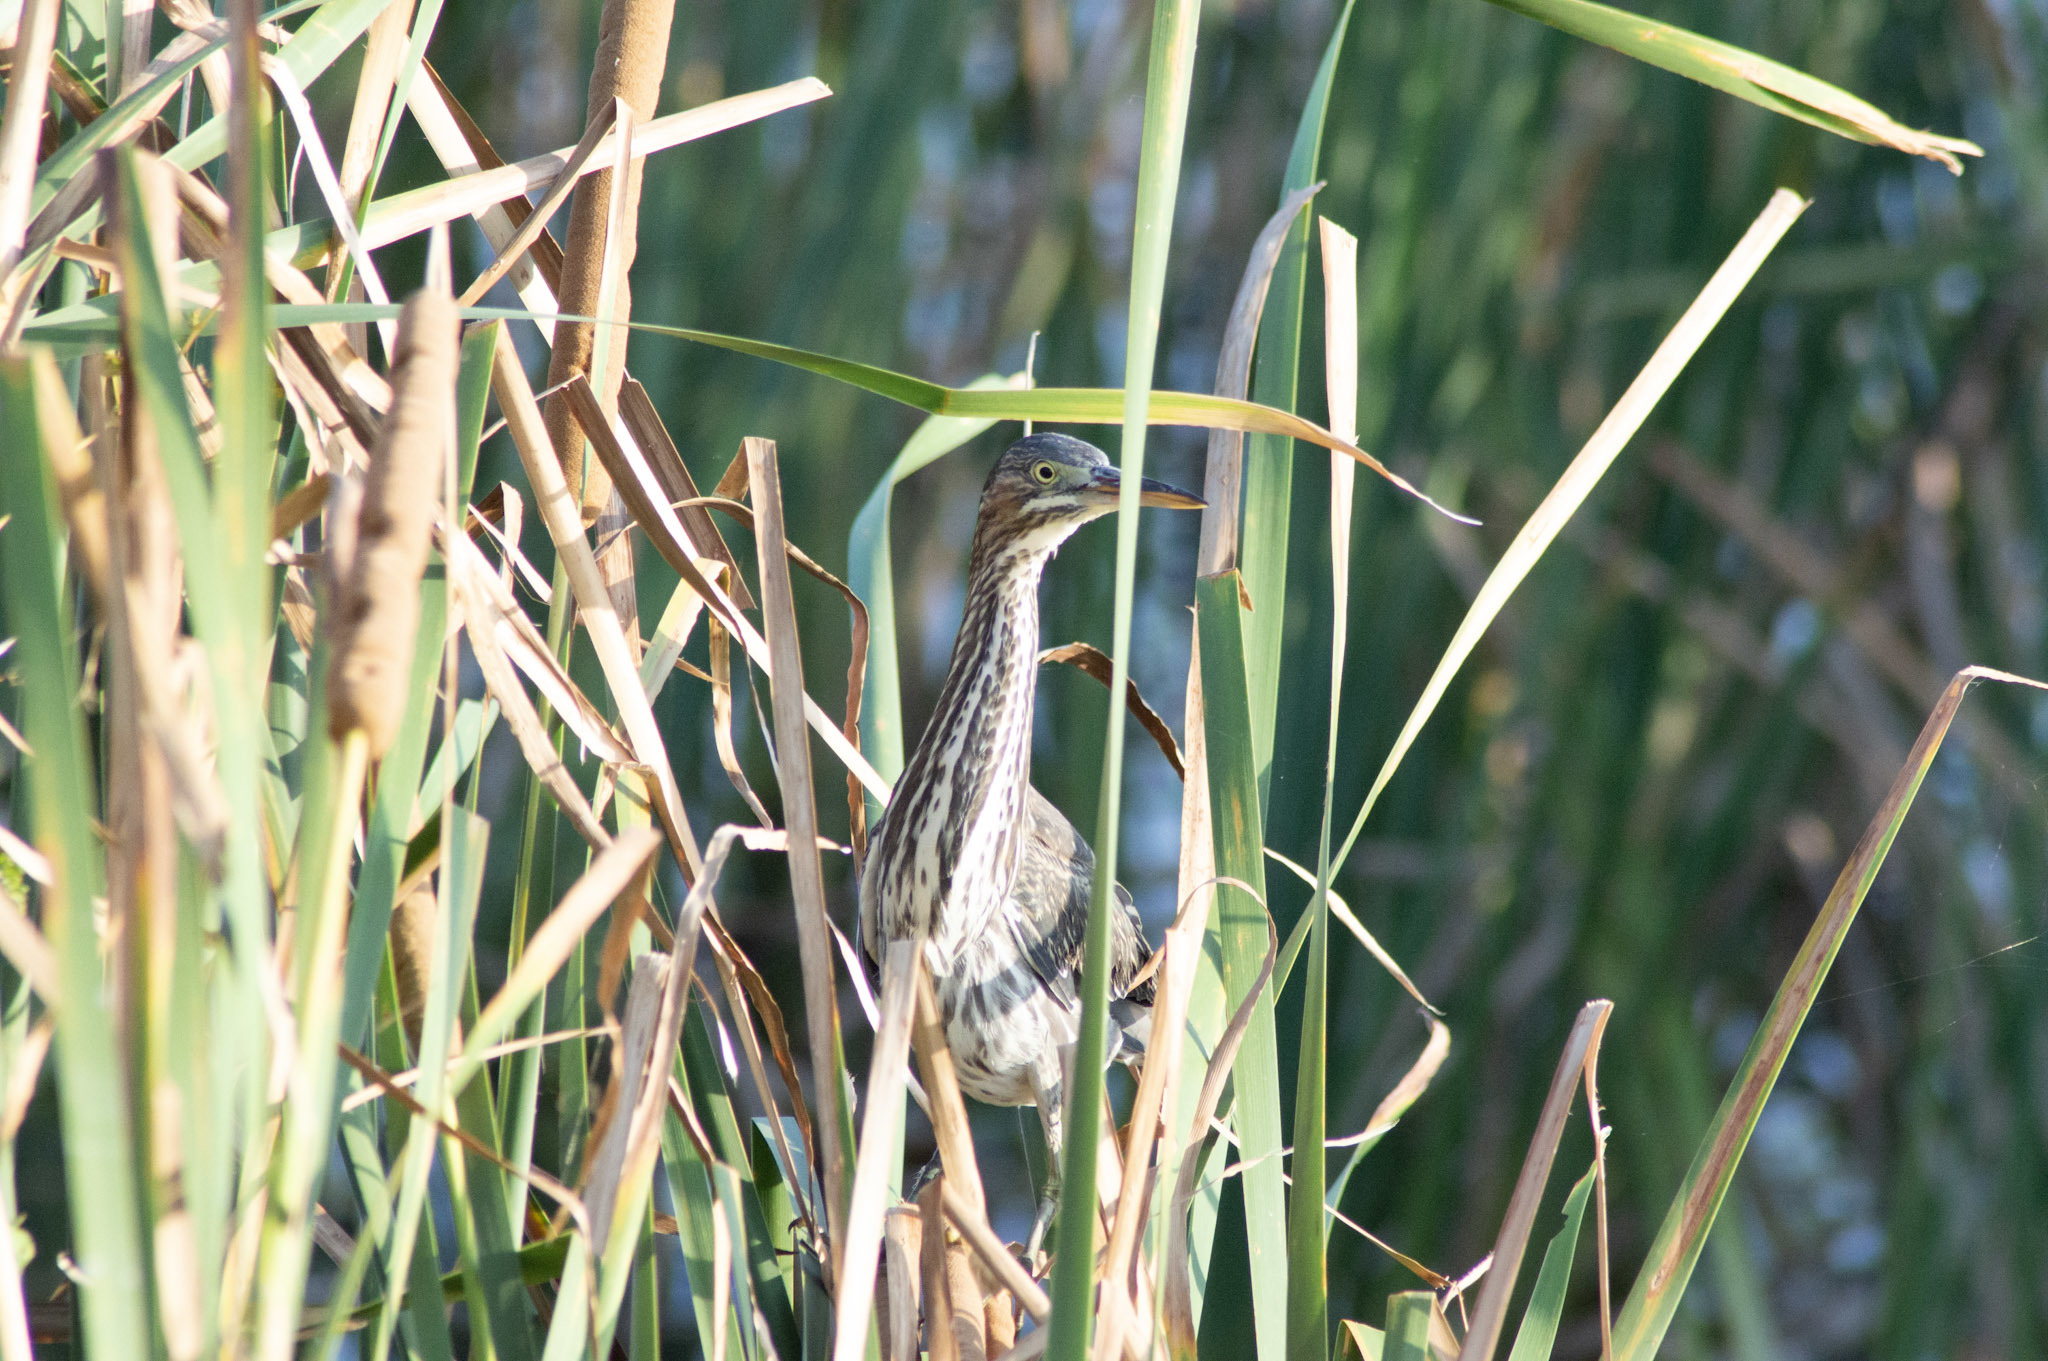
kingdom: Animalia
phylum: Chordata
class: Aves
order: Pelecaniformes
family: Ardeidae
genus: Butorides
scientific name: Butorides virescens
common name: Green heron
